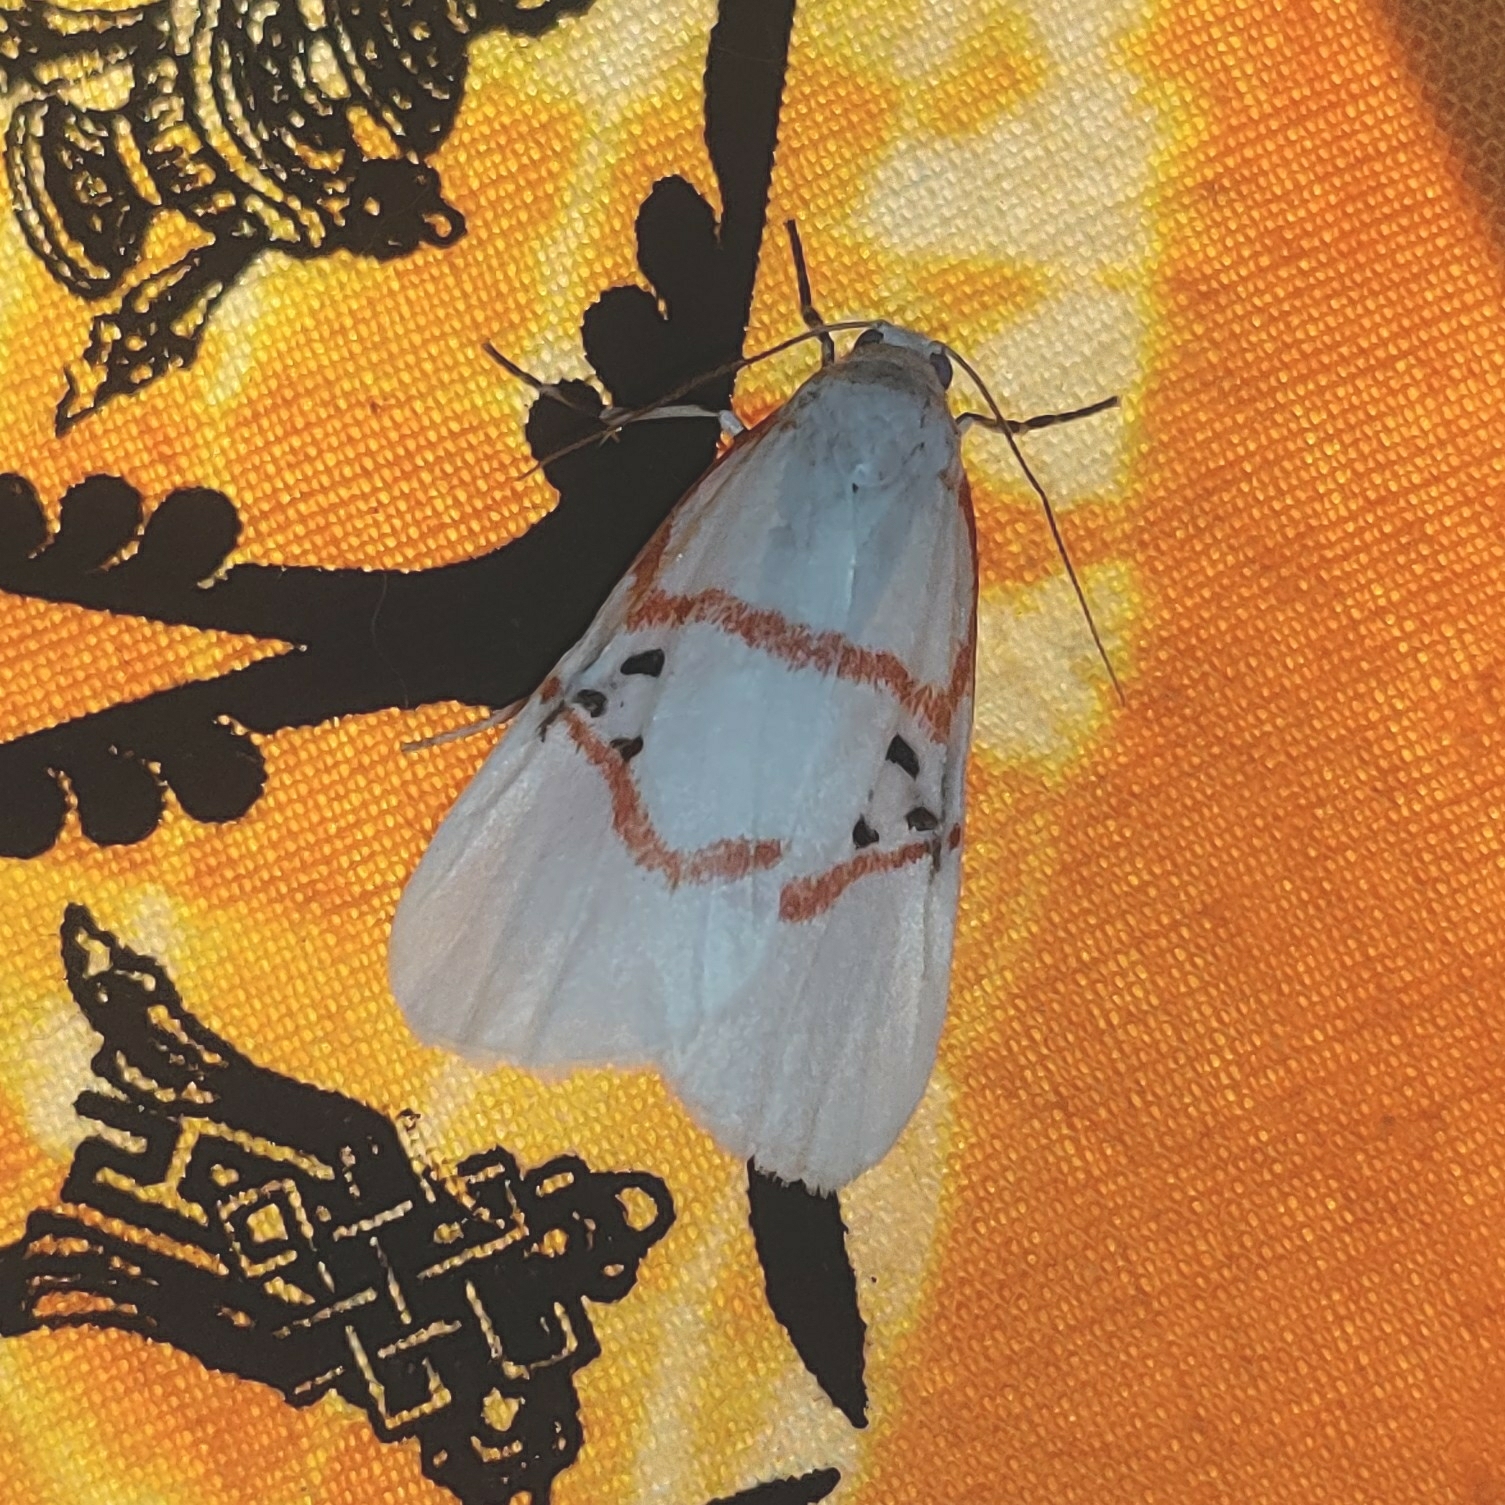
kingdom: Animalia
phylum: Arthropoda
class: Insecta
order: Lepidoptera
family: Erebidae
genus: Cyana
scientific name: Cyana dryope
